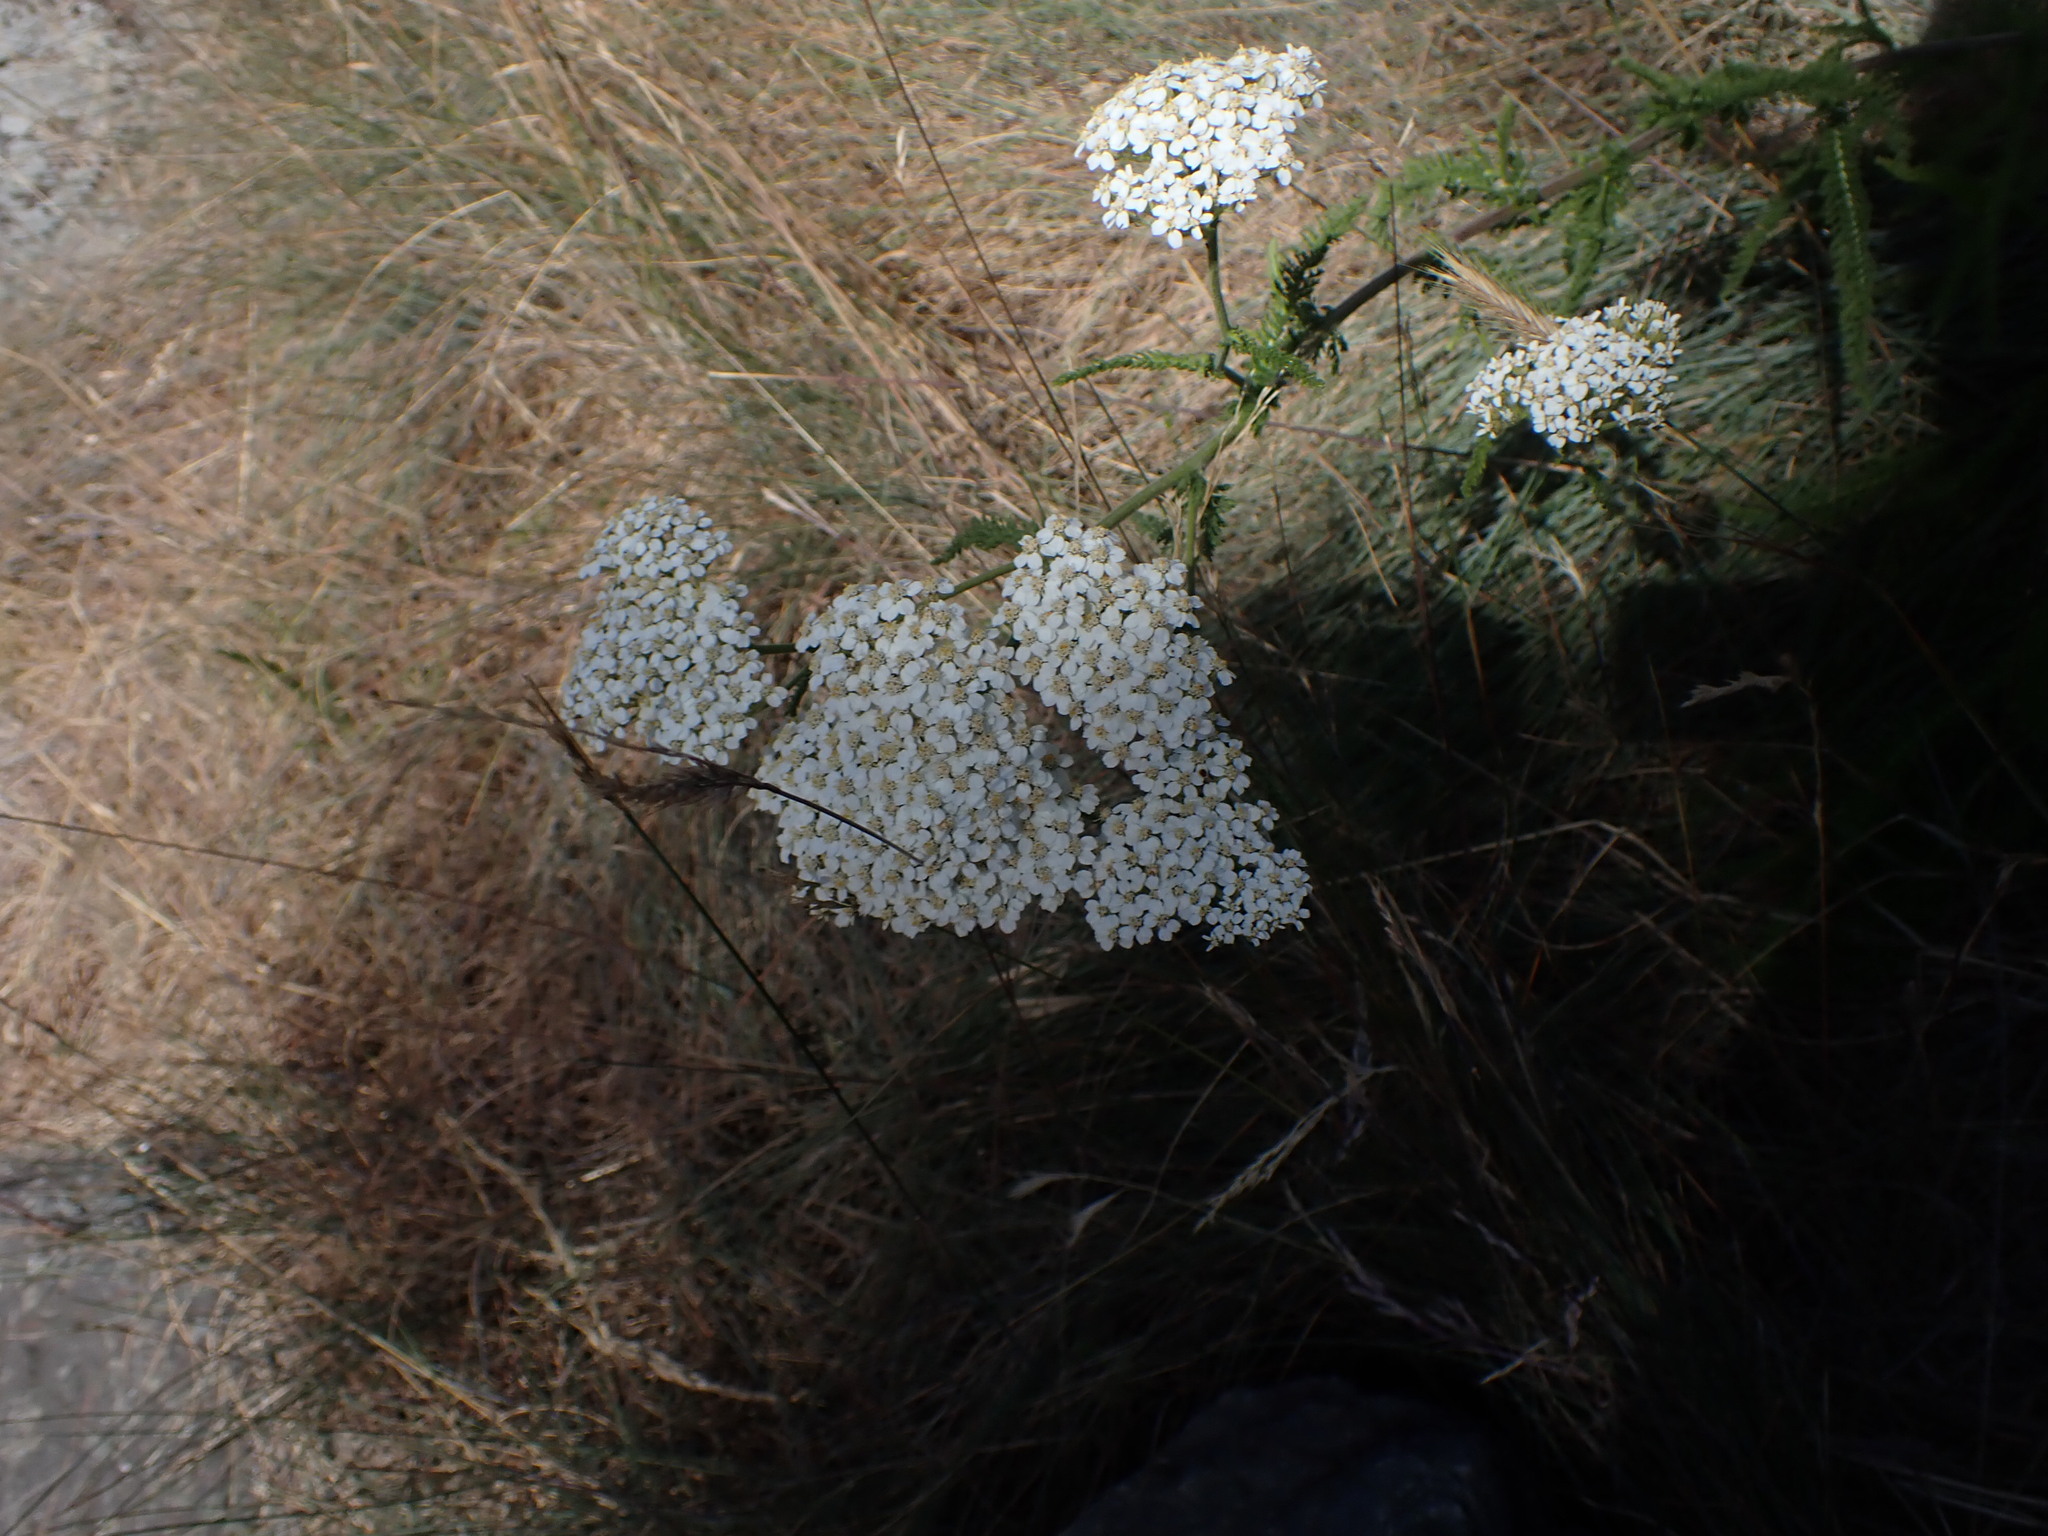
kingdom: Plantae
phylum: Tracheophyta
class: Magnoliopsida
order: Asterales
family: Asteraceae
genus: Achillea
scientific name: Achillea millefolium
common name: Yarrow
